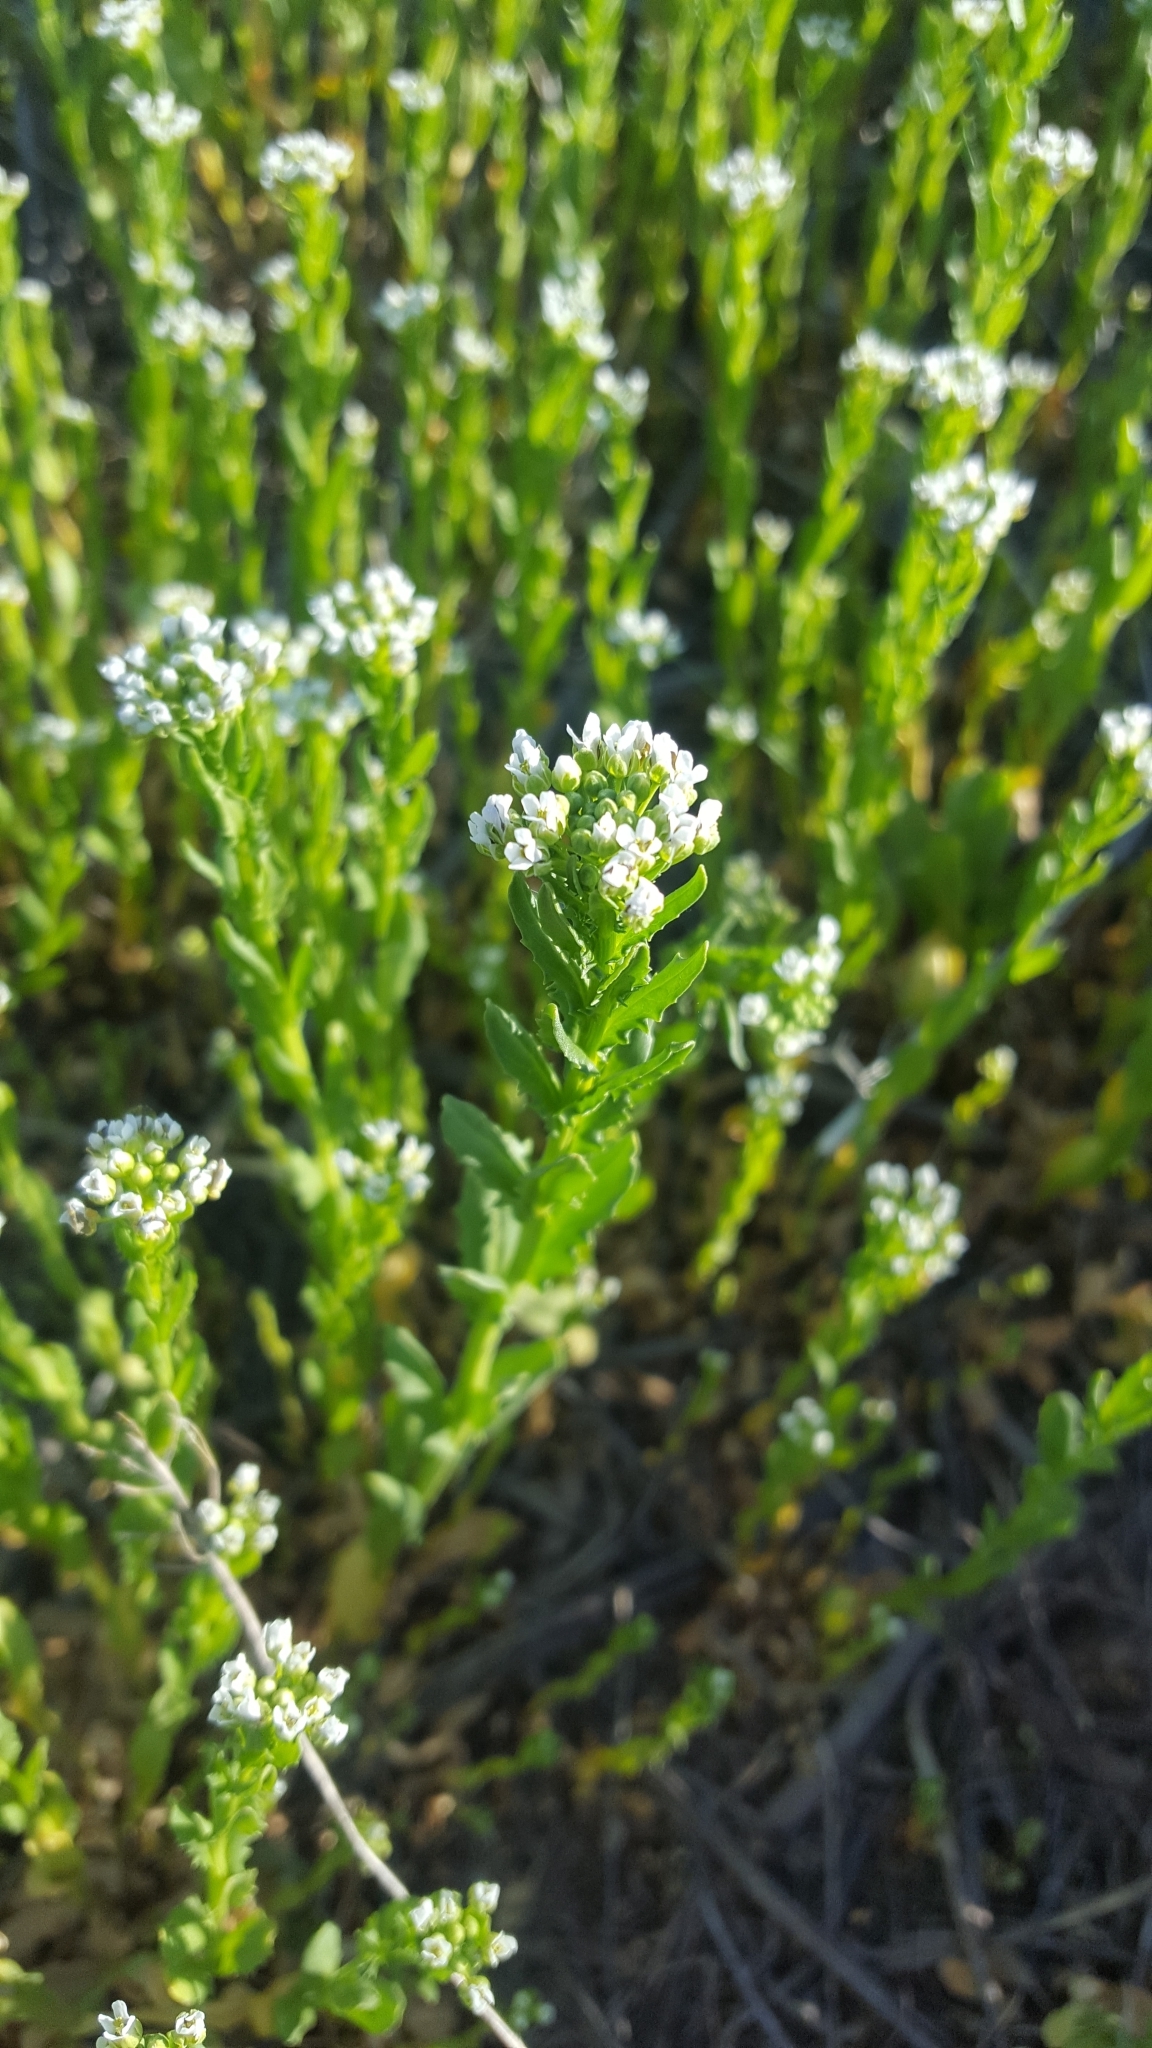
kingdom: Plantae
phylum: Tracheophyta
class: Magnoliopsida
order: Brassicales
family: Brassicaceae
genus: Lepidium
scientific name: Lepidium draba
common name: Hoary cress
